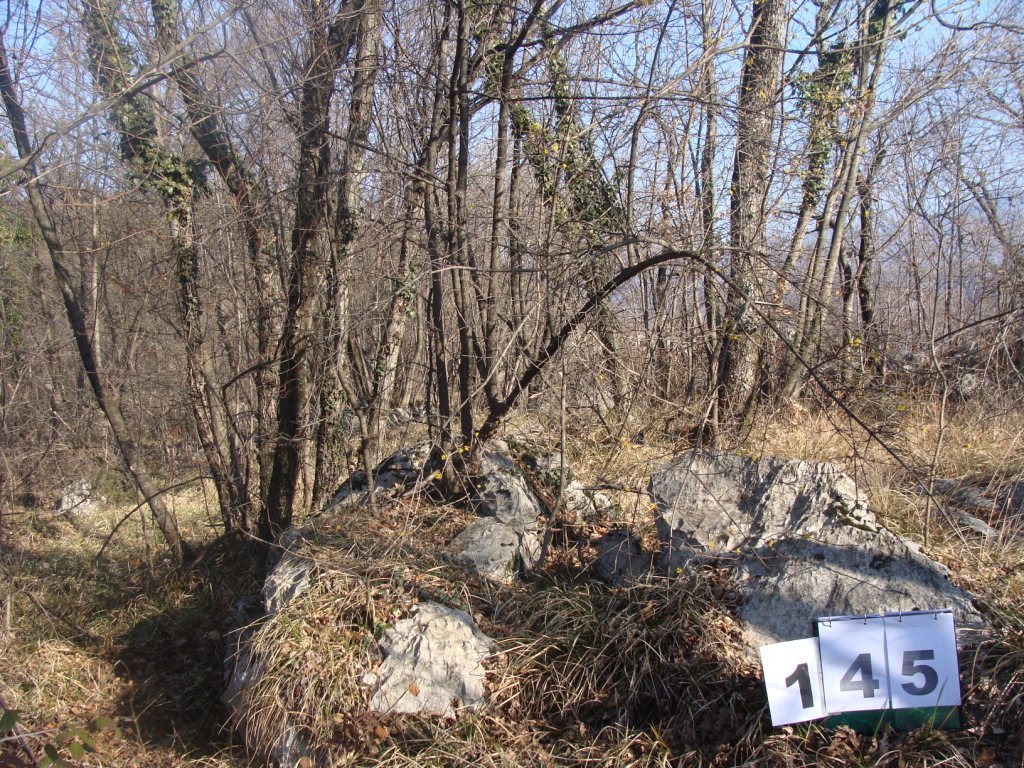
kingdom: Plantae
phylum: Tracheophyta
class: Magnoliopsida
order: Cornales
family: Cornaceae
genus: Cornus
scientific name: Cornus mas
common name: Cornelian-cherry
